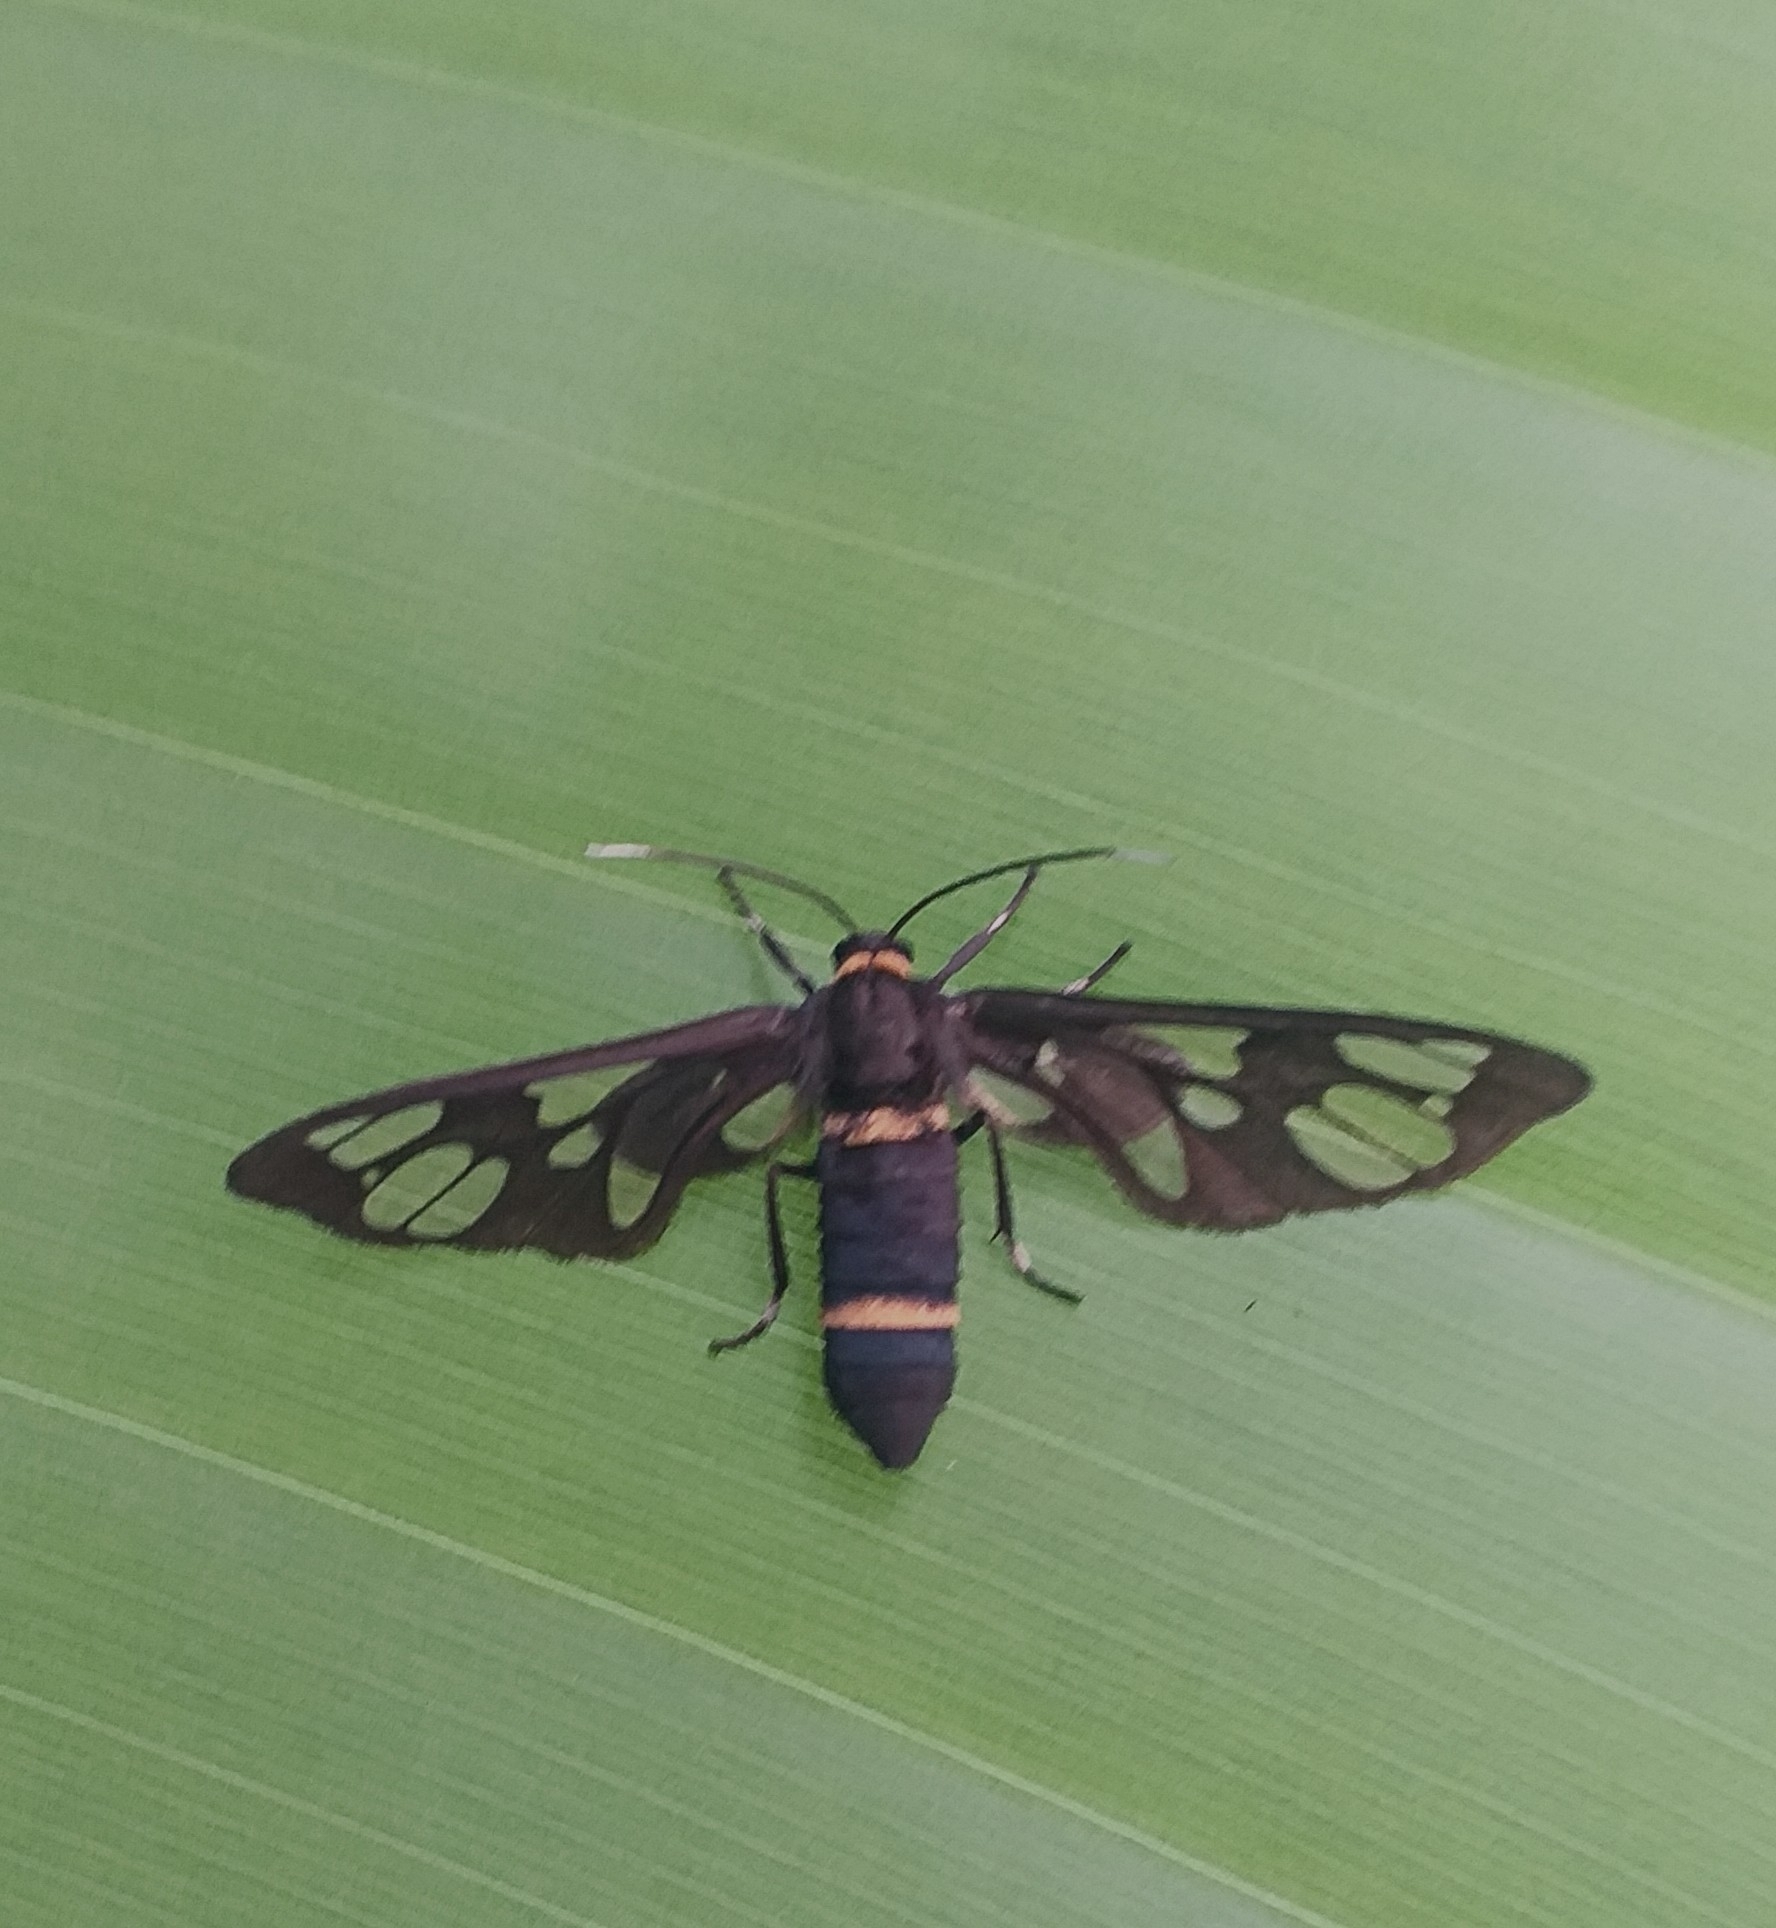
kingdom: Animalia
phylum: Arthropoda
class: Insecta
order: Lepidoptera
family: Erebidae
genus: Syntomoides
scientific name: Syntomoides imaon
